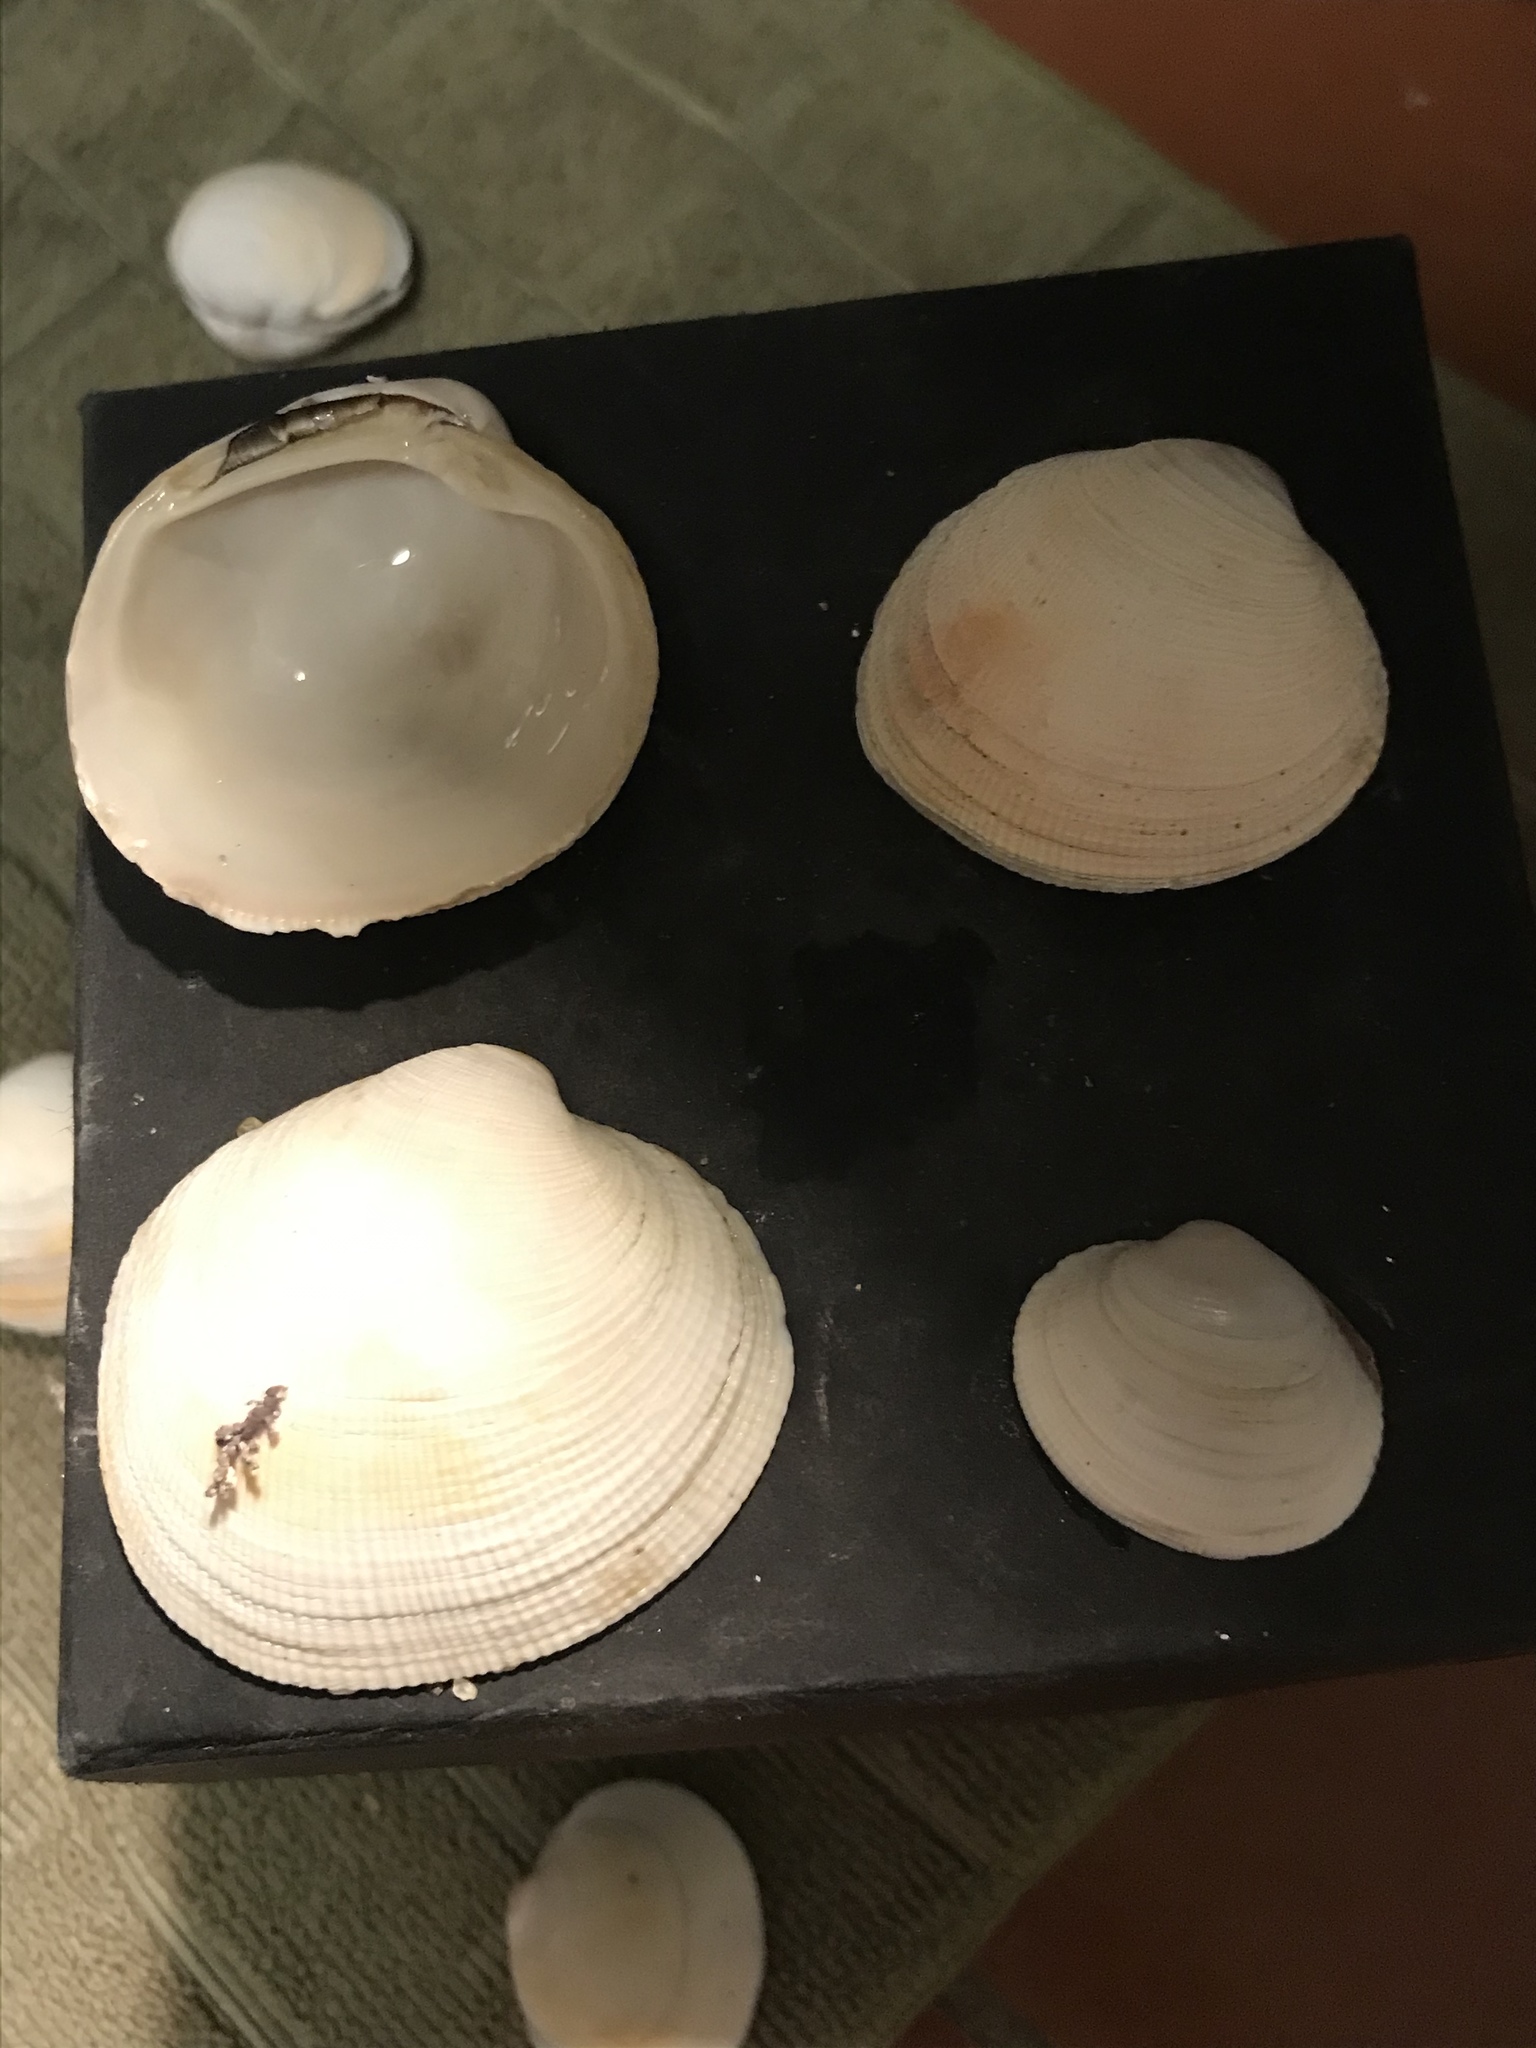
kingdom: Animalia
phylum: Mollusca
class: Bivalvia
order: Venerida
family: Veneridae
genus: Leukoma
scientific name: Leukoma staminea
